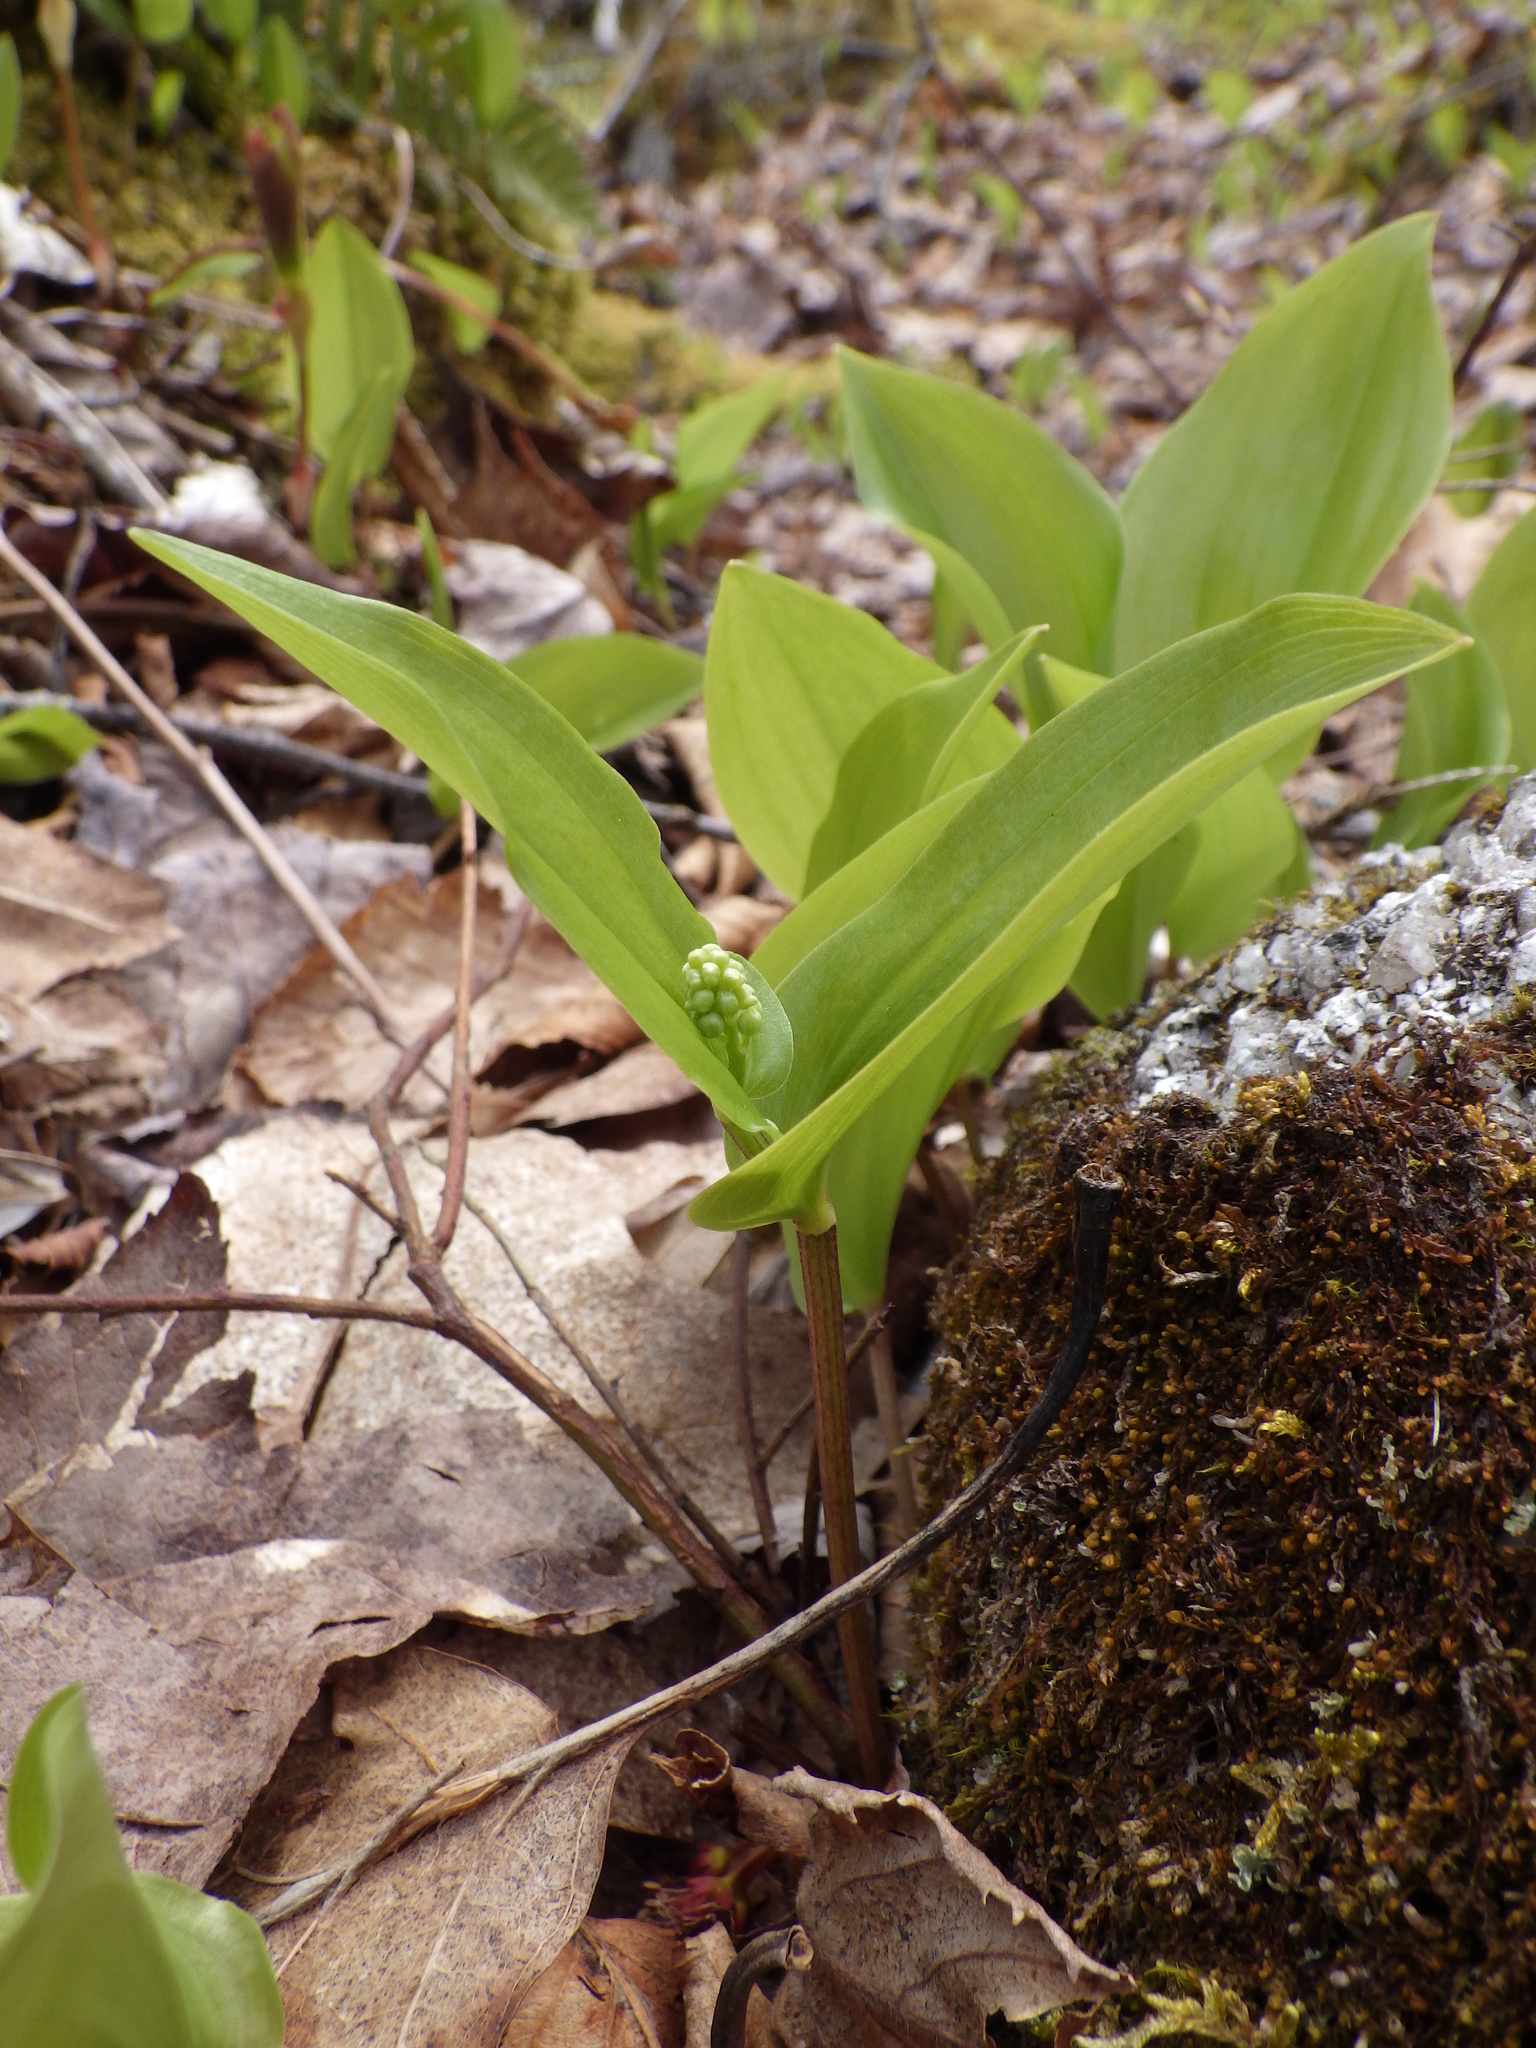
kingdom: Plantae
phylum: Tracheophyta
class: Liliopsida
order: Asparagales
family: Asparagaceae
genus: Maianthemum
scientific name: Maianthemum canadense
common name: False lily-of-the-valley
